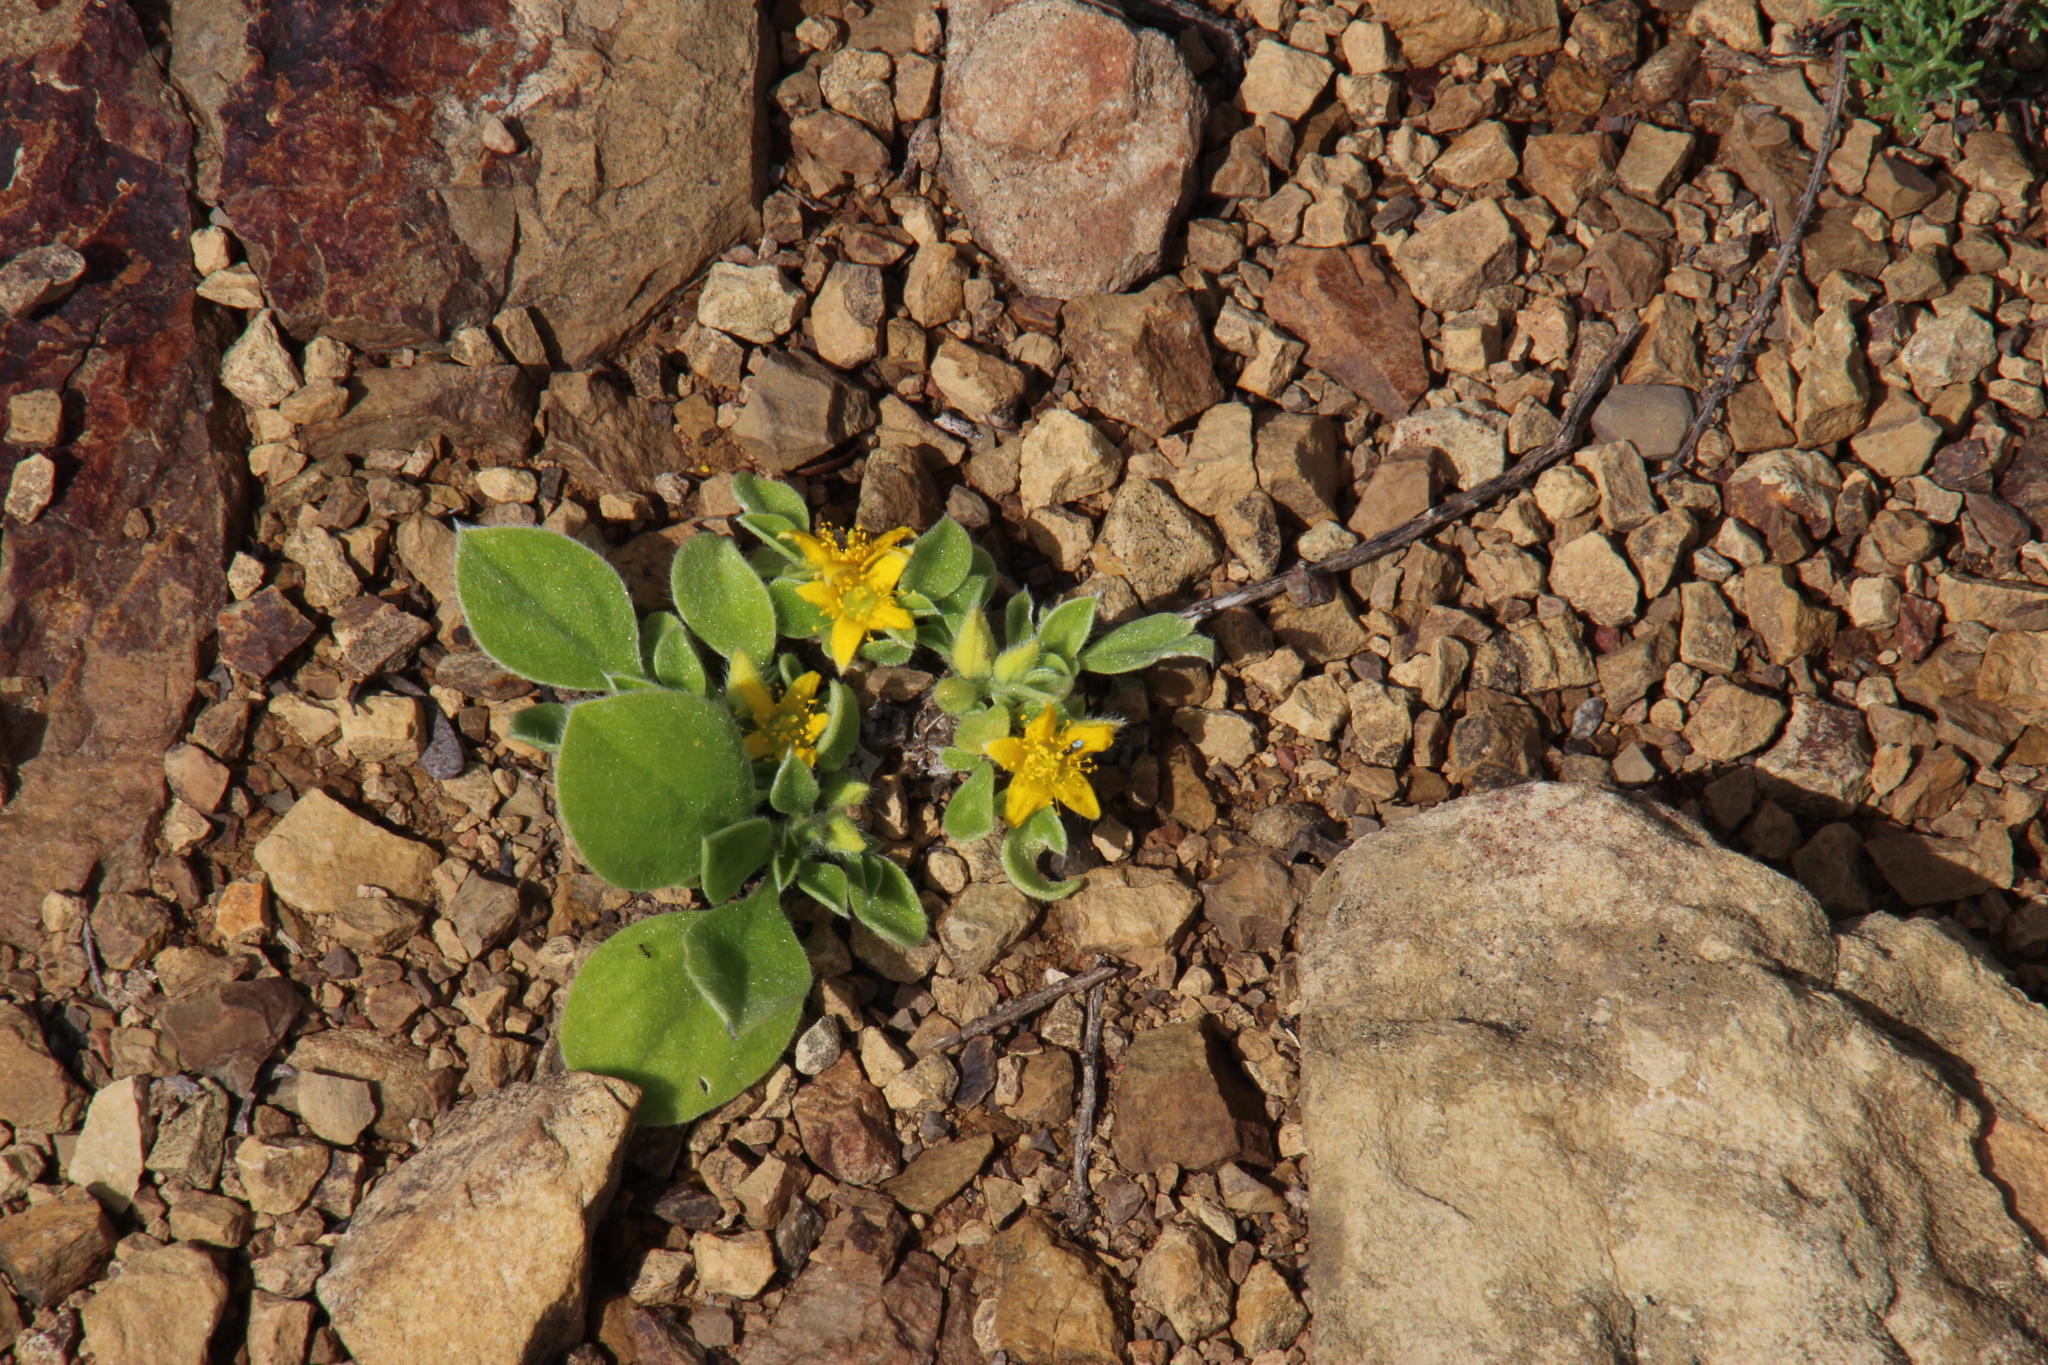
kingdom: Plantae
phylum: Tracheophyta
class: Magnoliopsida
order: Caryophyllales
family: Aizoaceae
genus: Aizoon
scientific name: Aizoon glinoides
